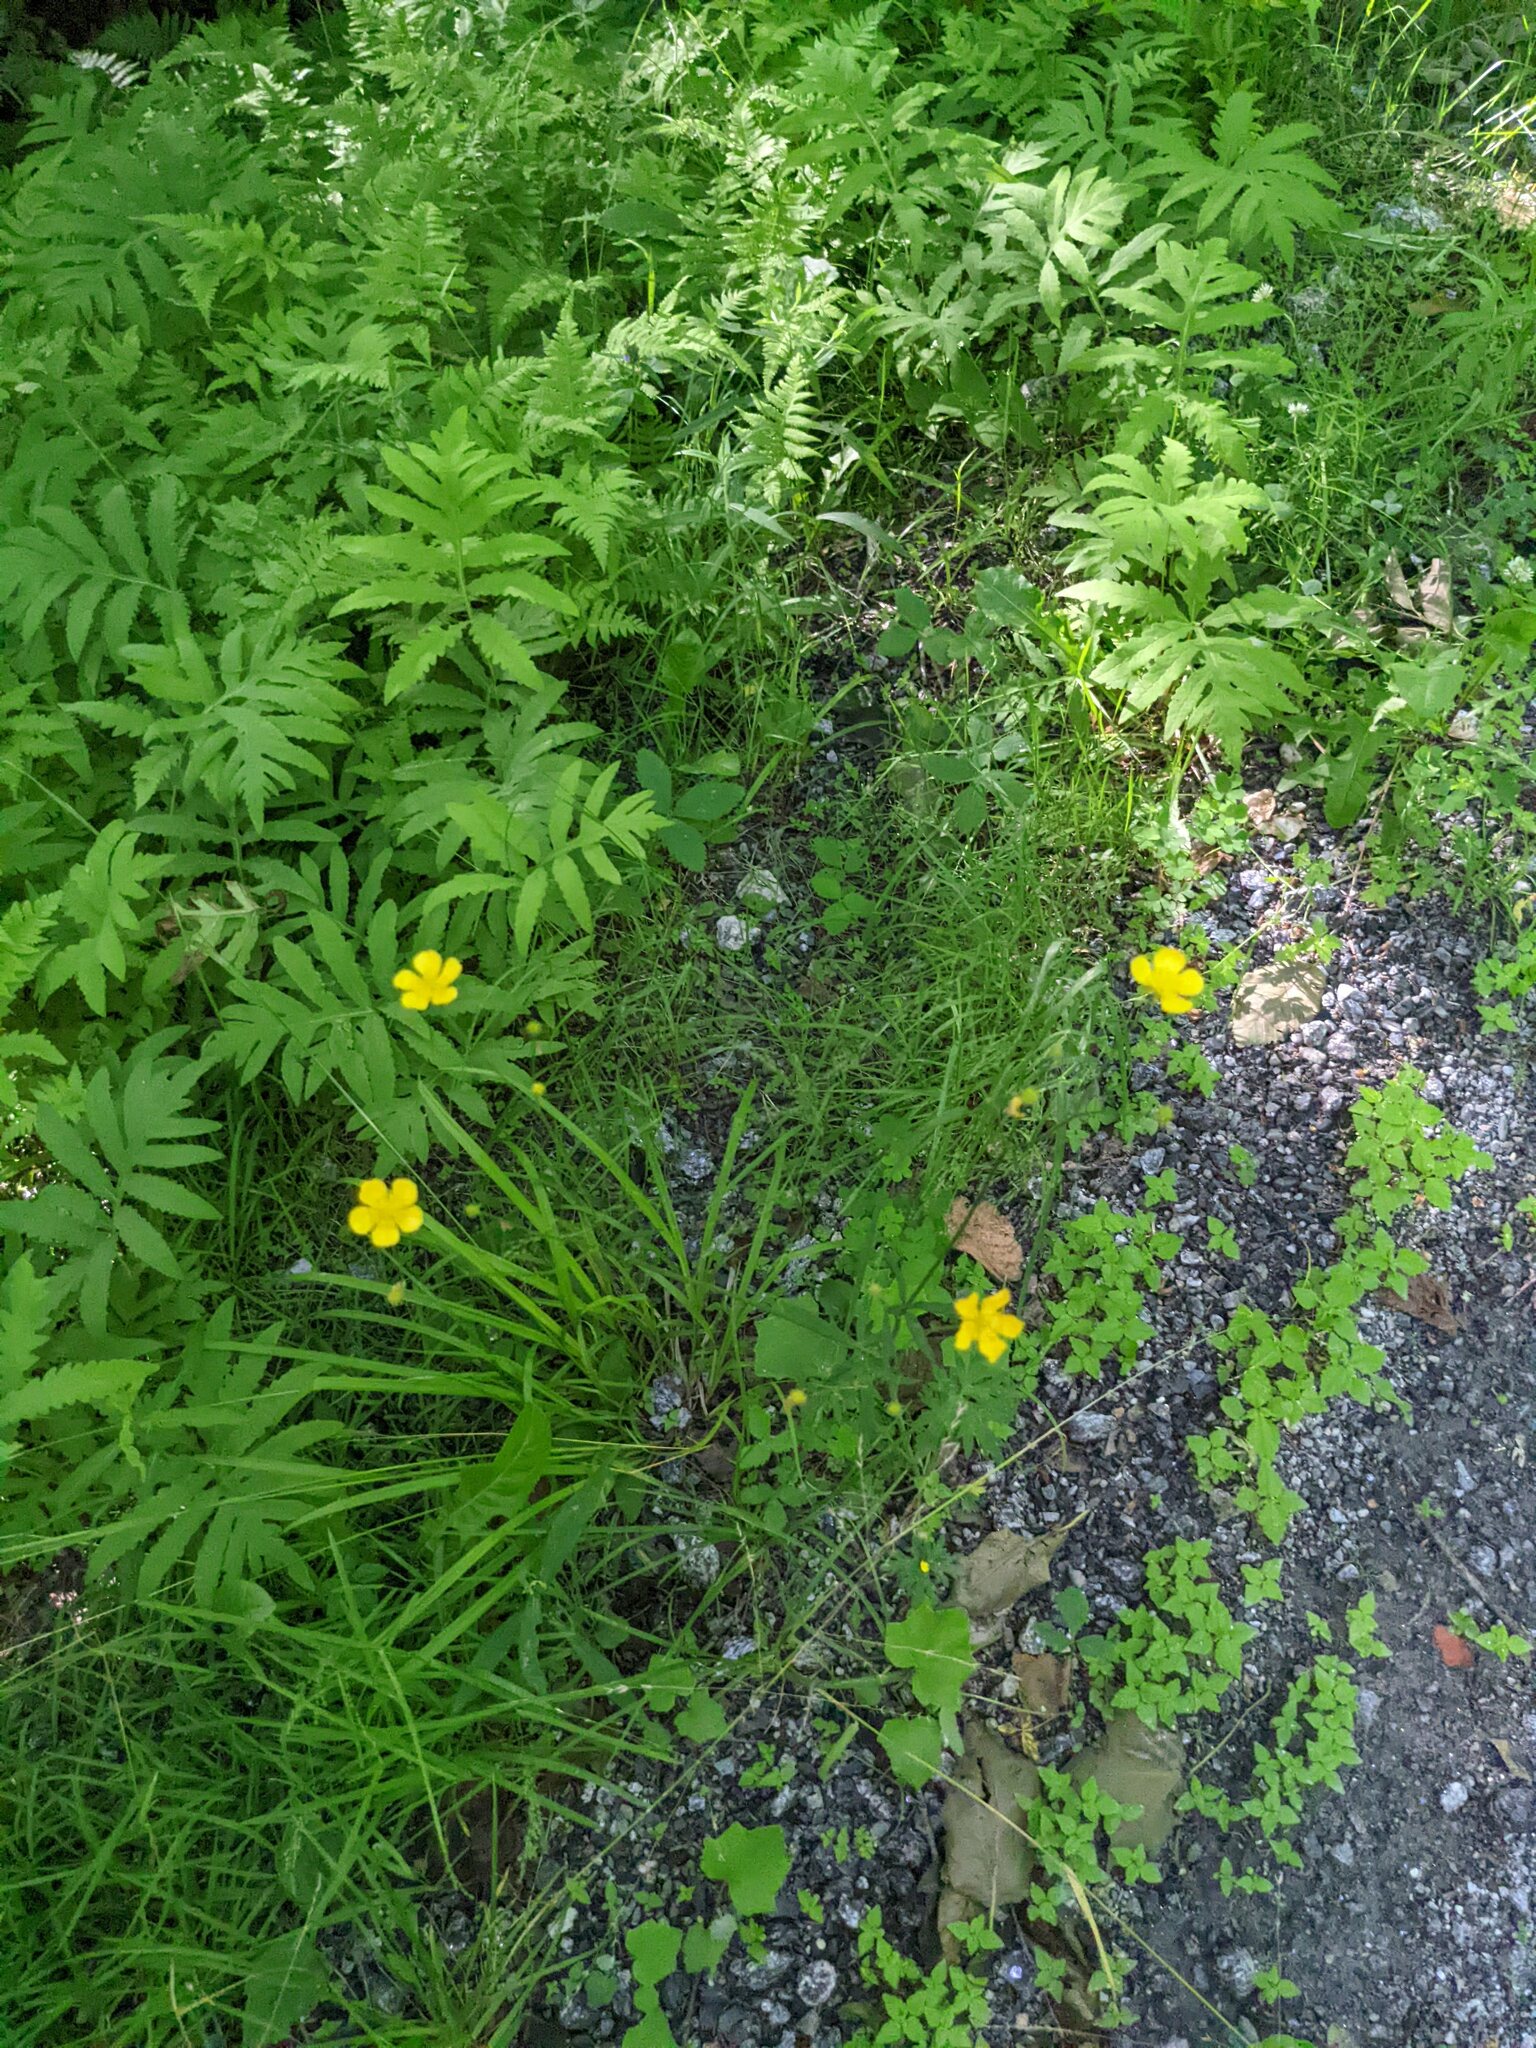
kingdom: Plantae
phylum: Tracheophyta
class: Polypodiopsida
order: Polypodiales
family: Onocleaceae
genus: Onoclea
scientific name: Onoclea sensibilis
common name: Sensitive fern
